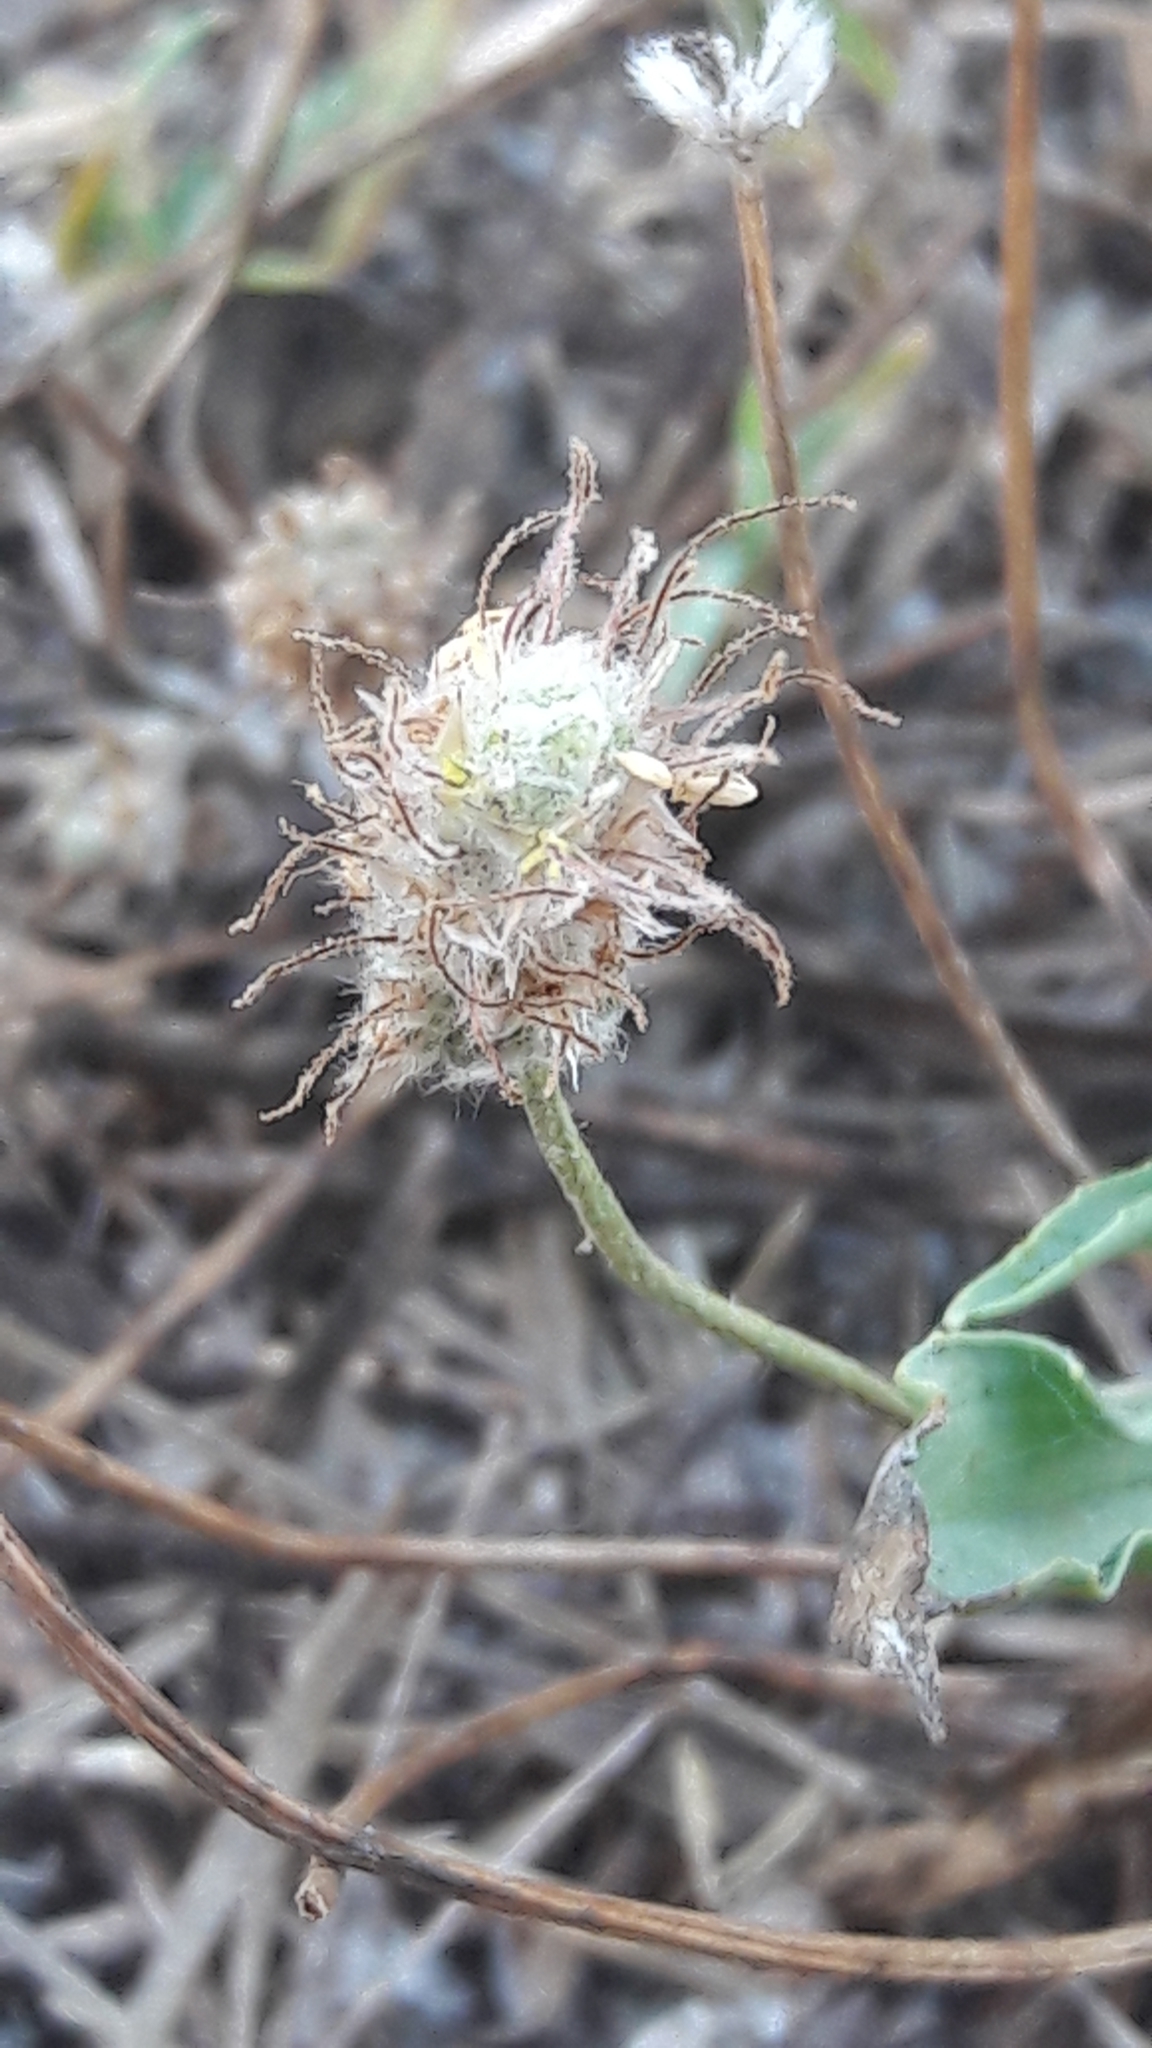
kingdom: Plantae
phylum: Tracheophyta
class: Magnoliopsida
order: Lamiales
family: Plantaginaceae
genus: Plantago
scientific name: Plantago lagopus
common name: Hare-foot plantain
